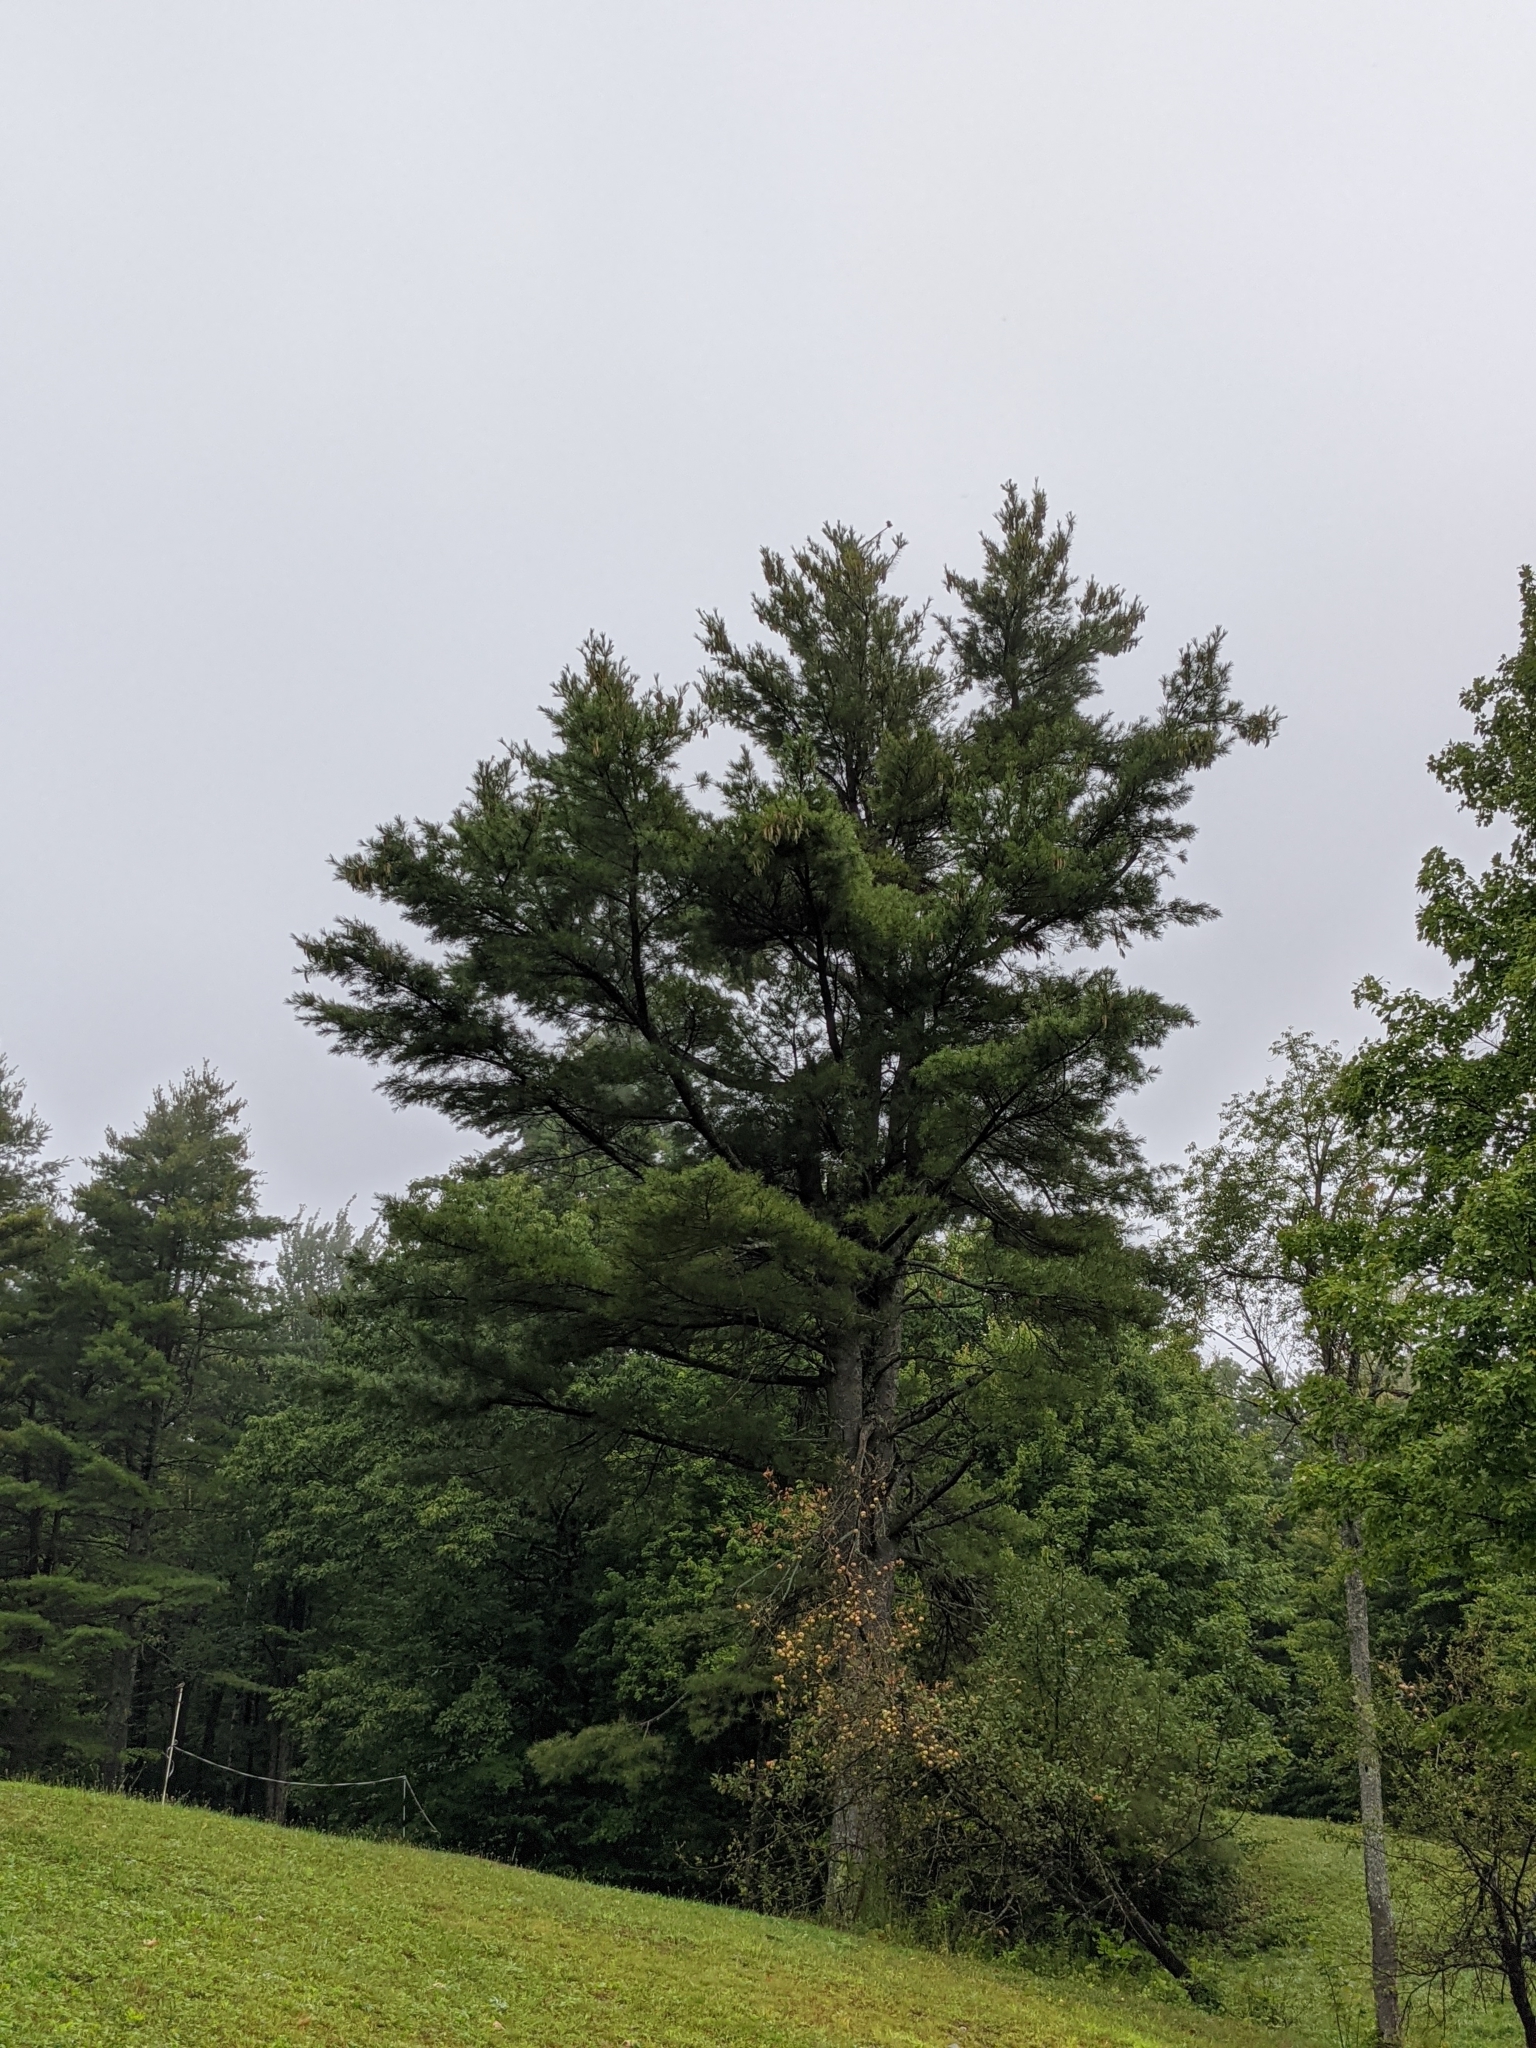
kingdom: Plantae
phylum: Tracheophyta
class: Pinopsida
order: Pinales
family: Pinaceae
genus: Pinus
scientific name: Pinus strobus
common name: Weymouth pine
